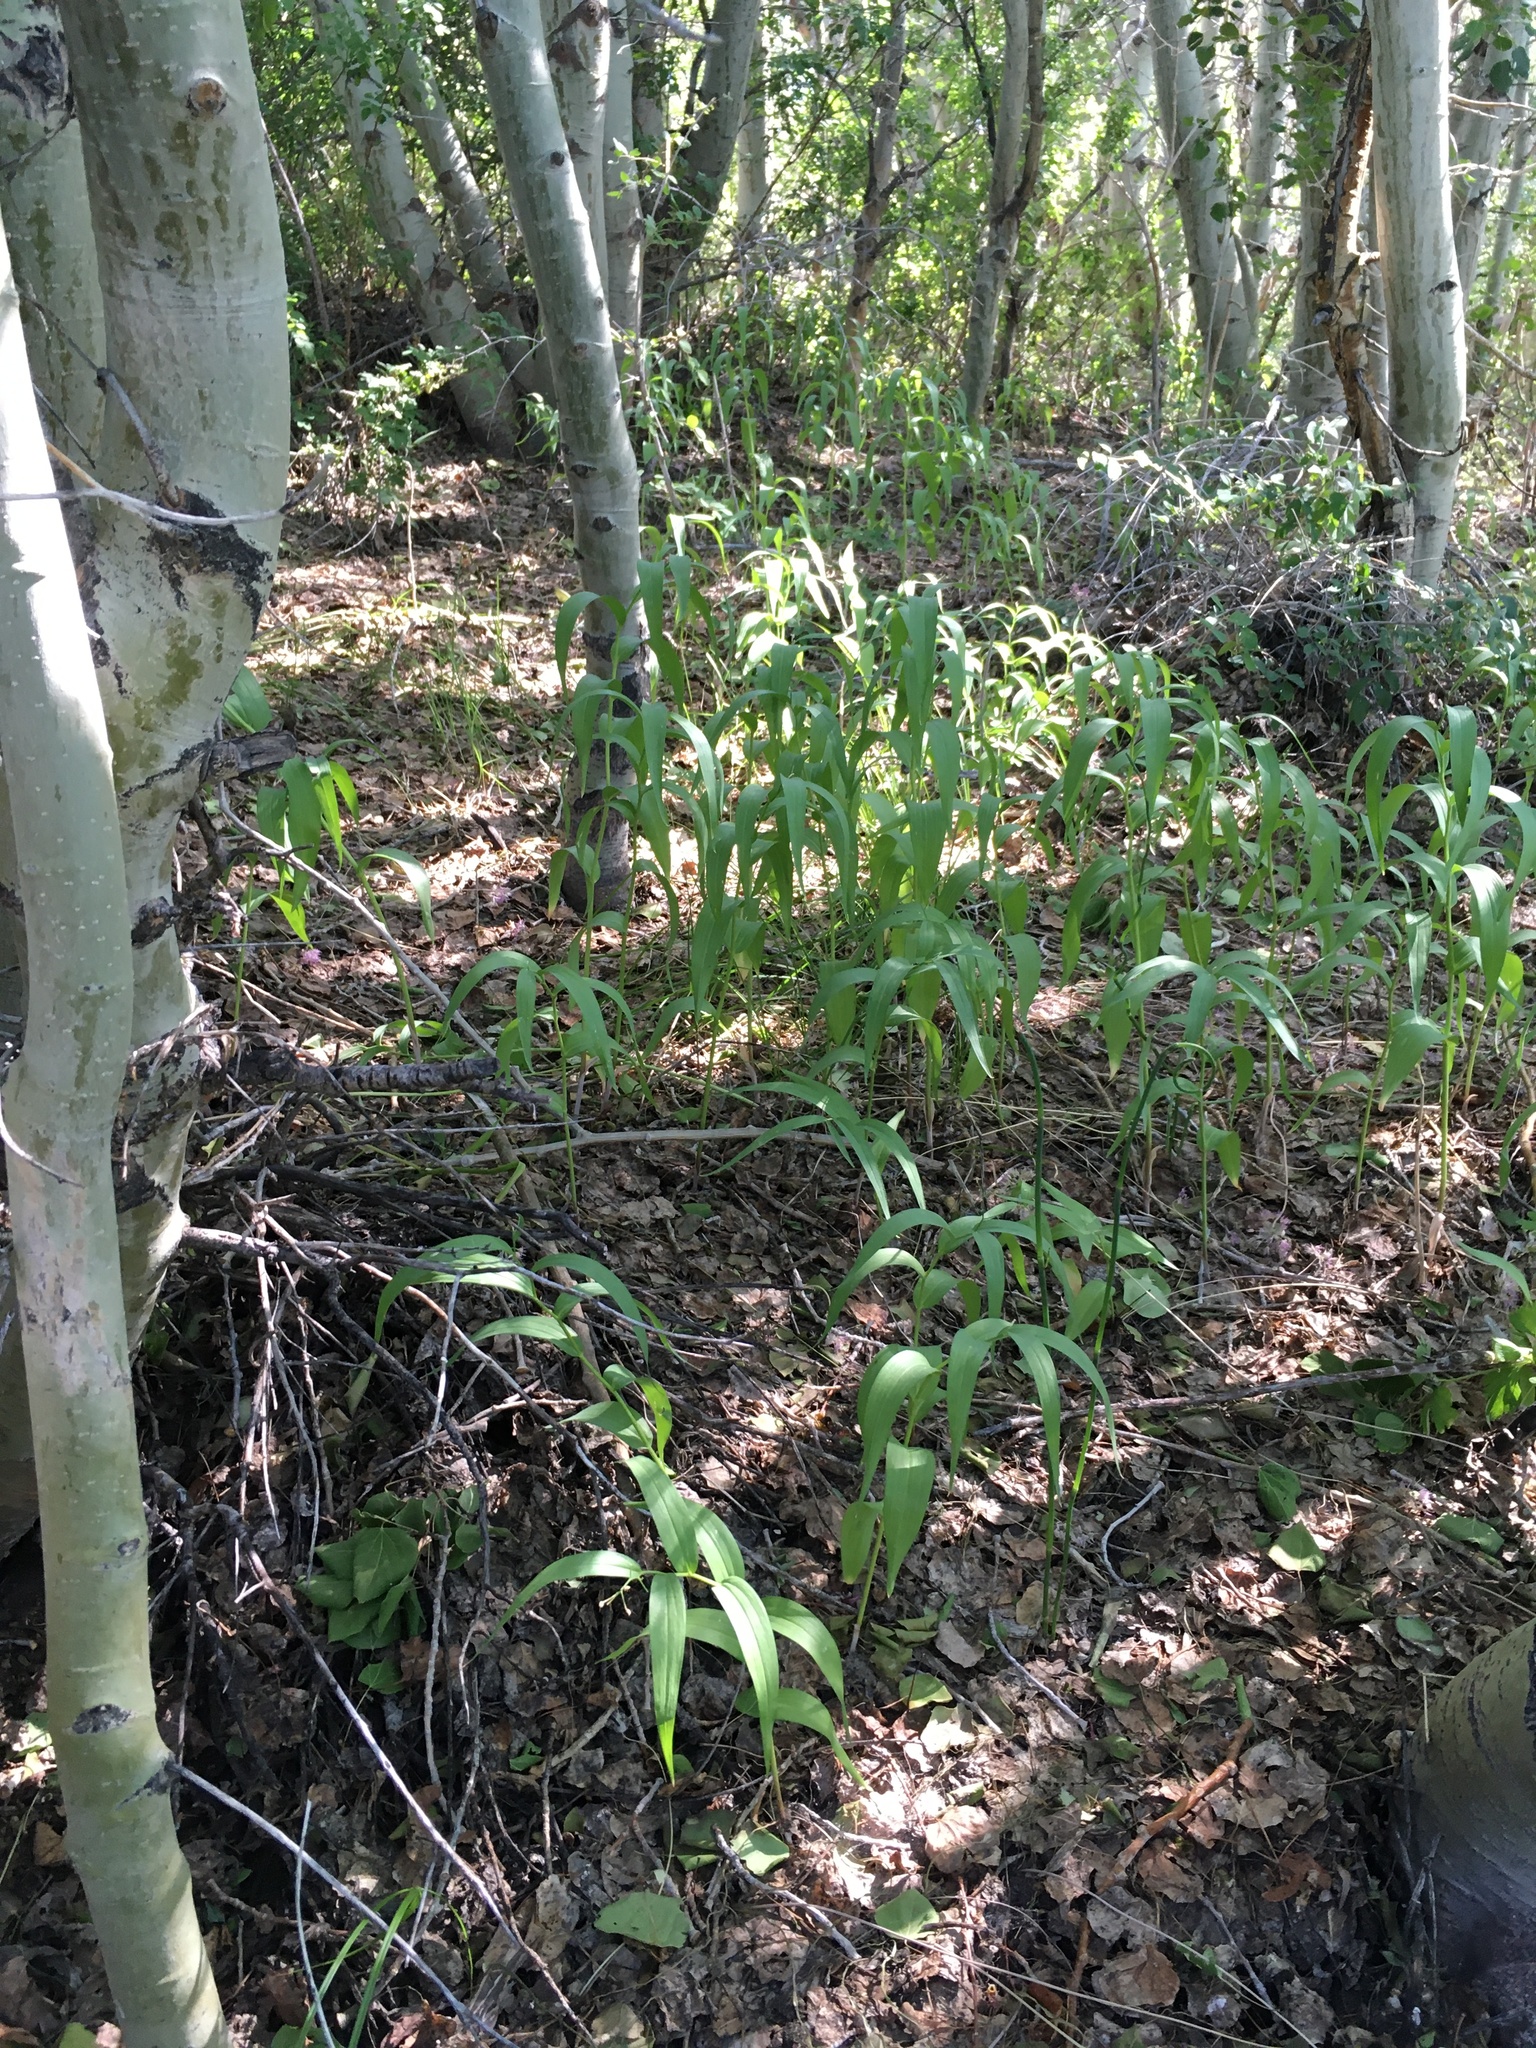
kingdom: Plantae
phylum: Tracheophyta
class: Liliopsida
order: Asparagales
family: Asparagaceae
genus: Maianthemum
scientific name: Maianthemum stellatum
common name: Little false solomon's seal
